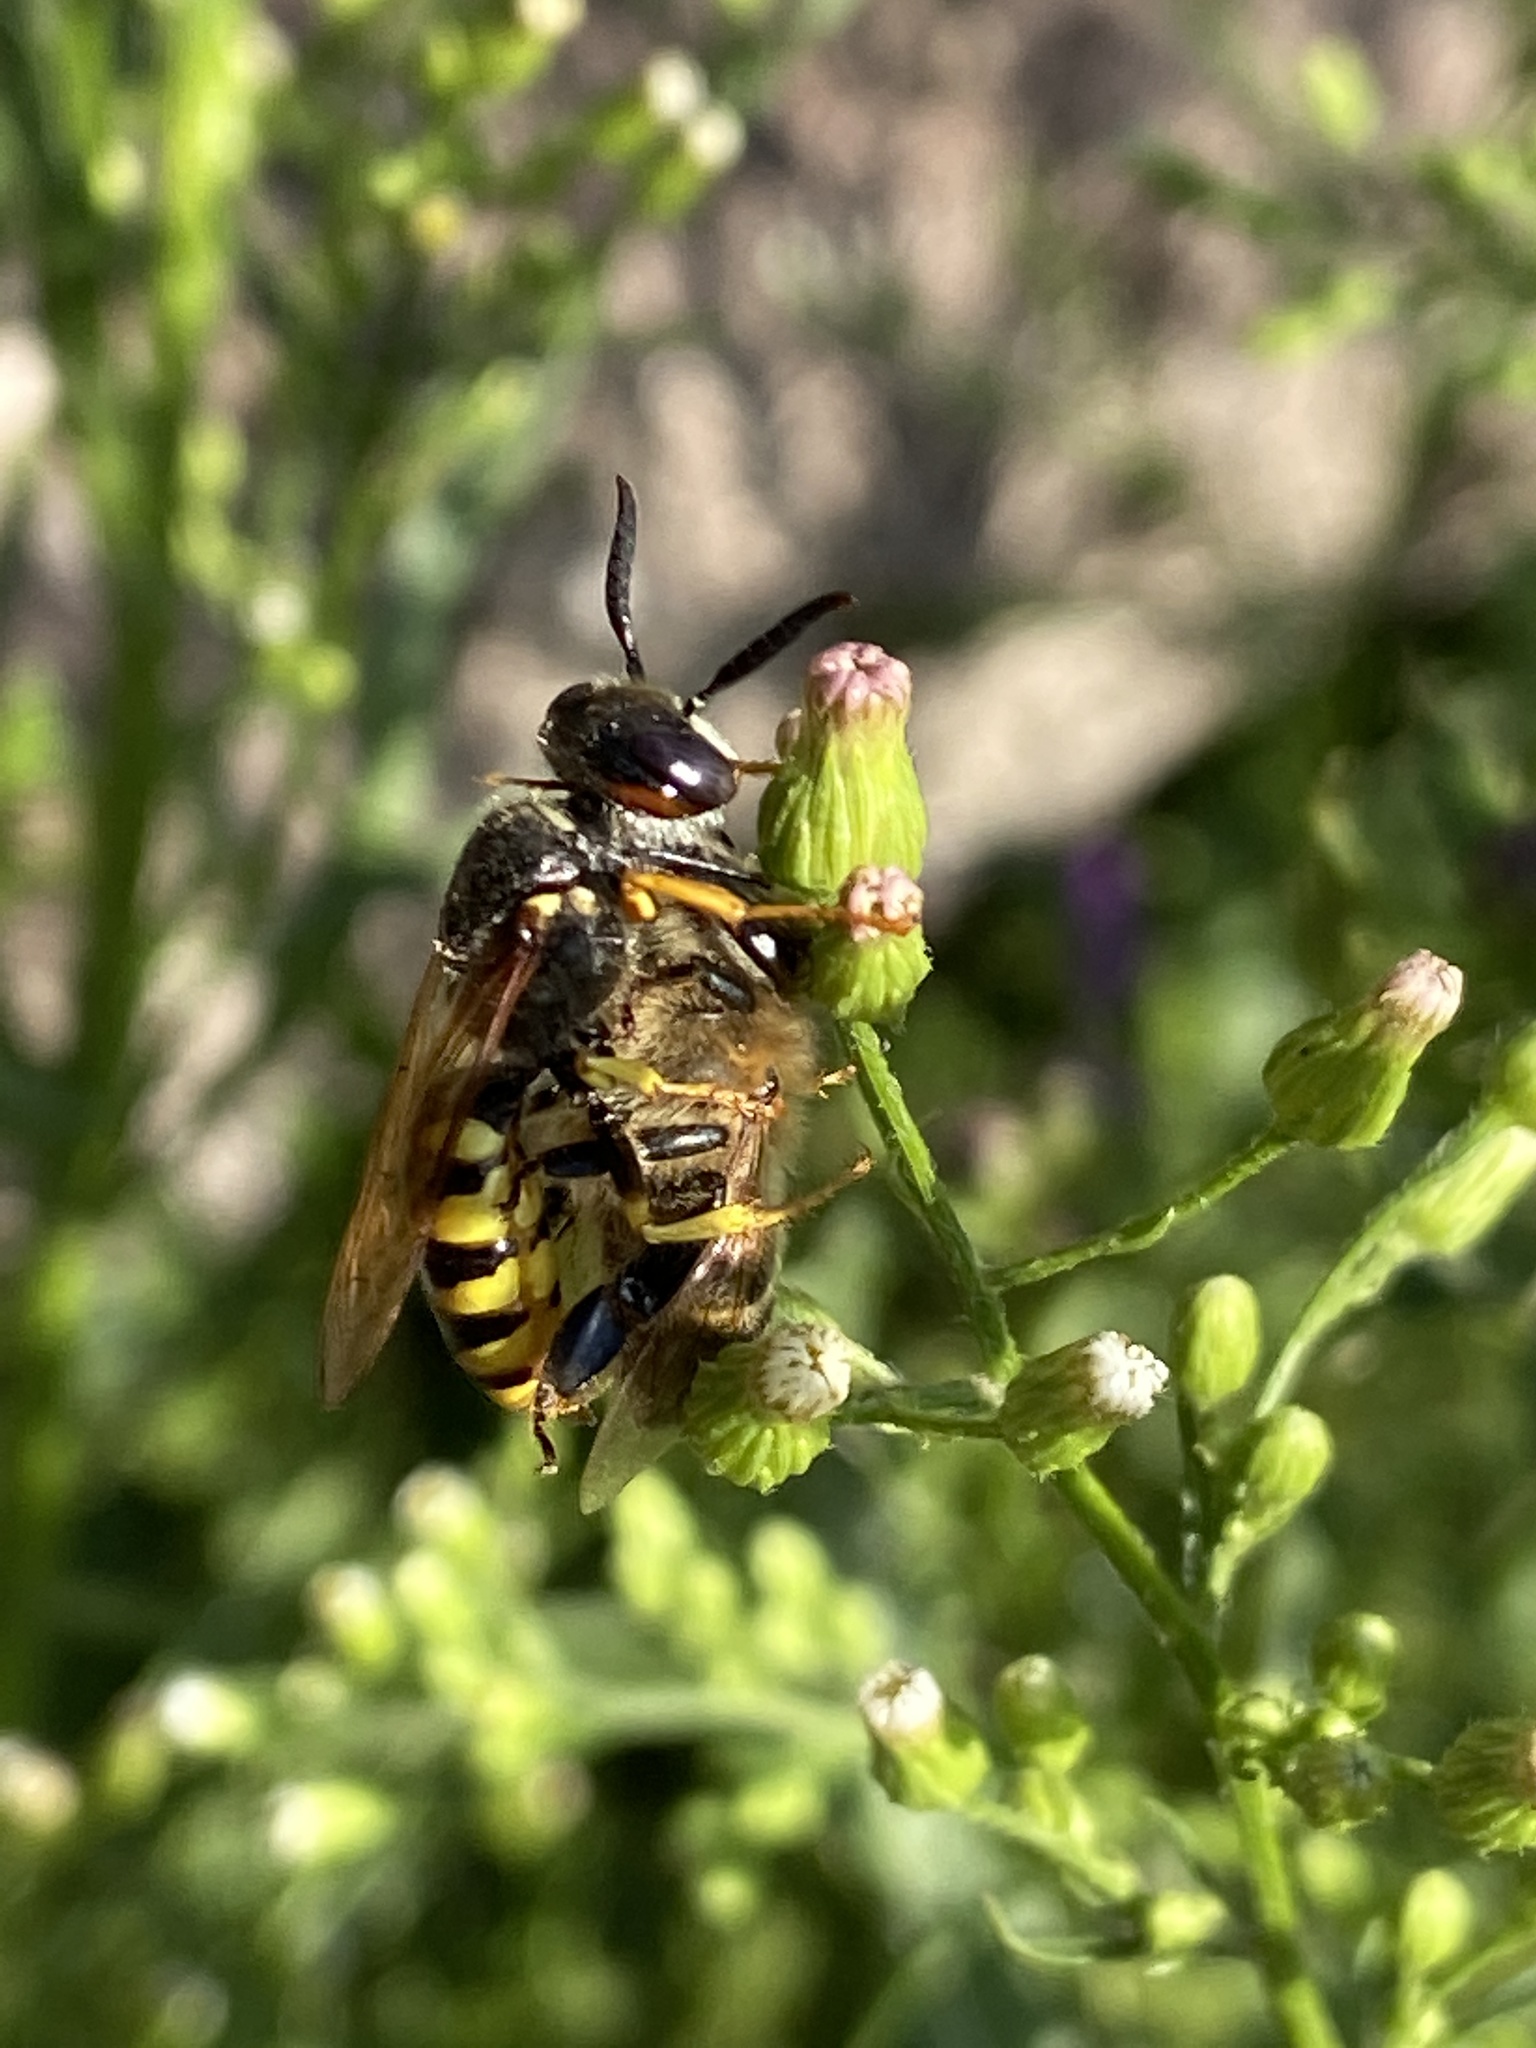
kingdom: Animalia
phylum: Arthropoda
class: Insecta
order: Hymenoptera
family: Crabronidae
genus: Philanthus
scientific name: Philanthus triangulum
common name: Bee wolf
